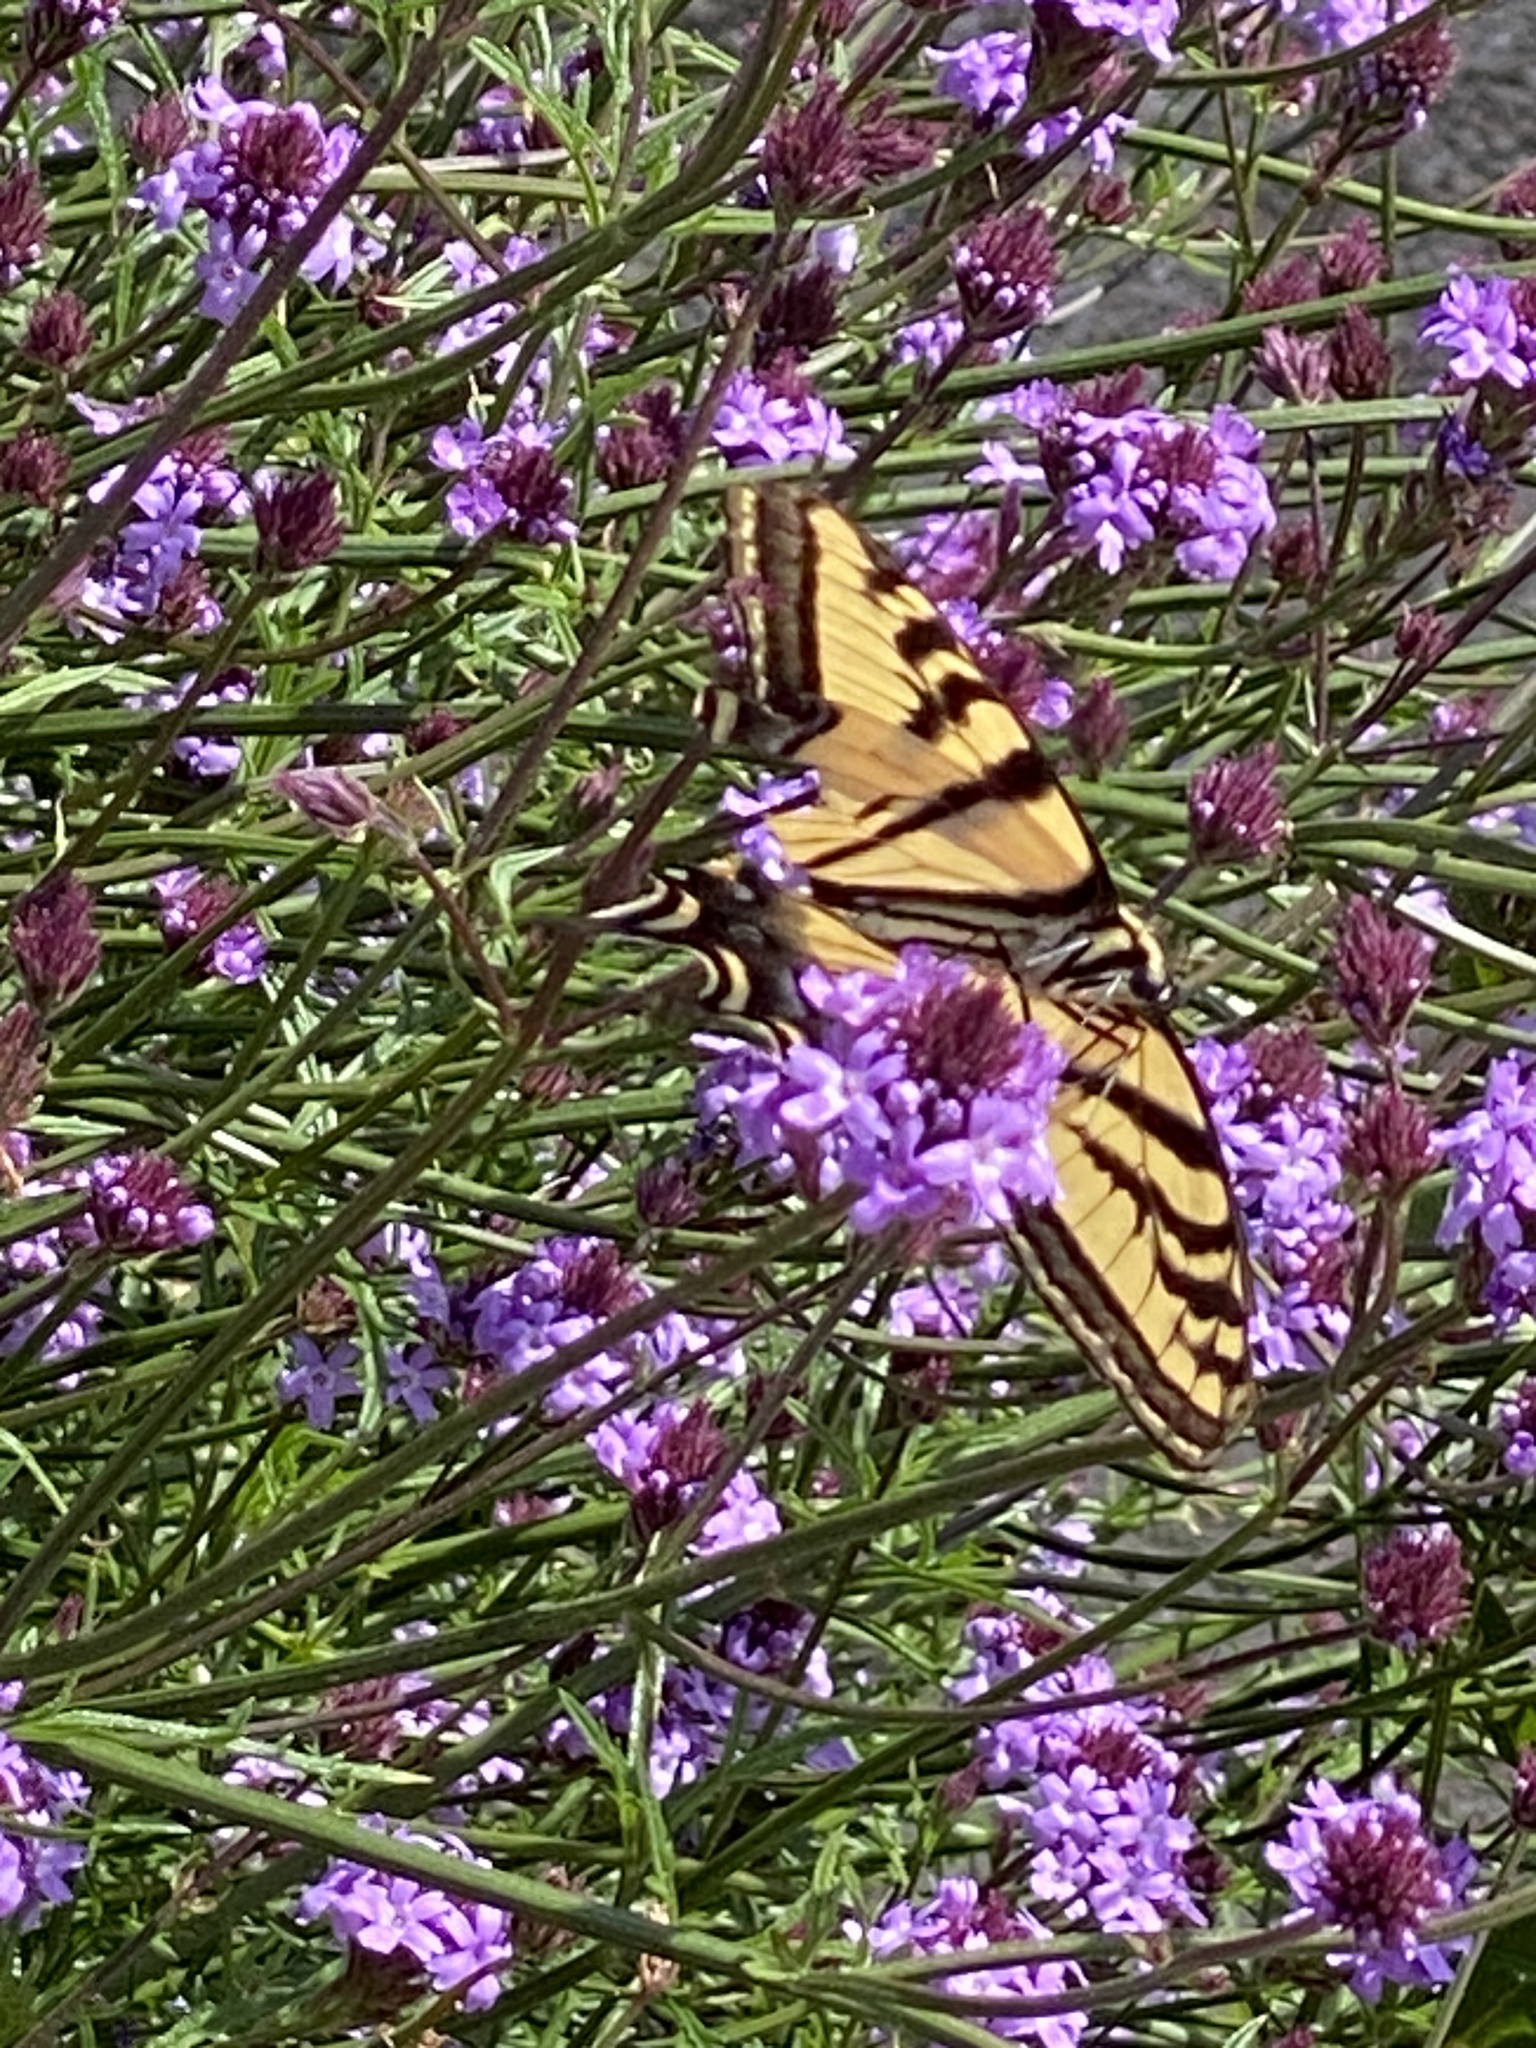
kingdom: Animalia
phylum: Arthropoda
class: Insecta
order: Lepidoptera
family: Papilionidae
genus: Papilio
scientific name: Papilio rutulus
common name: Western tiger swallowtail
